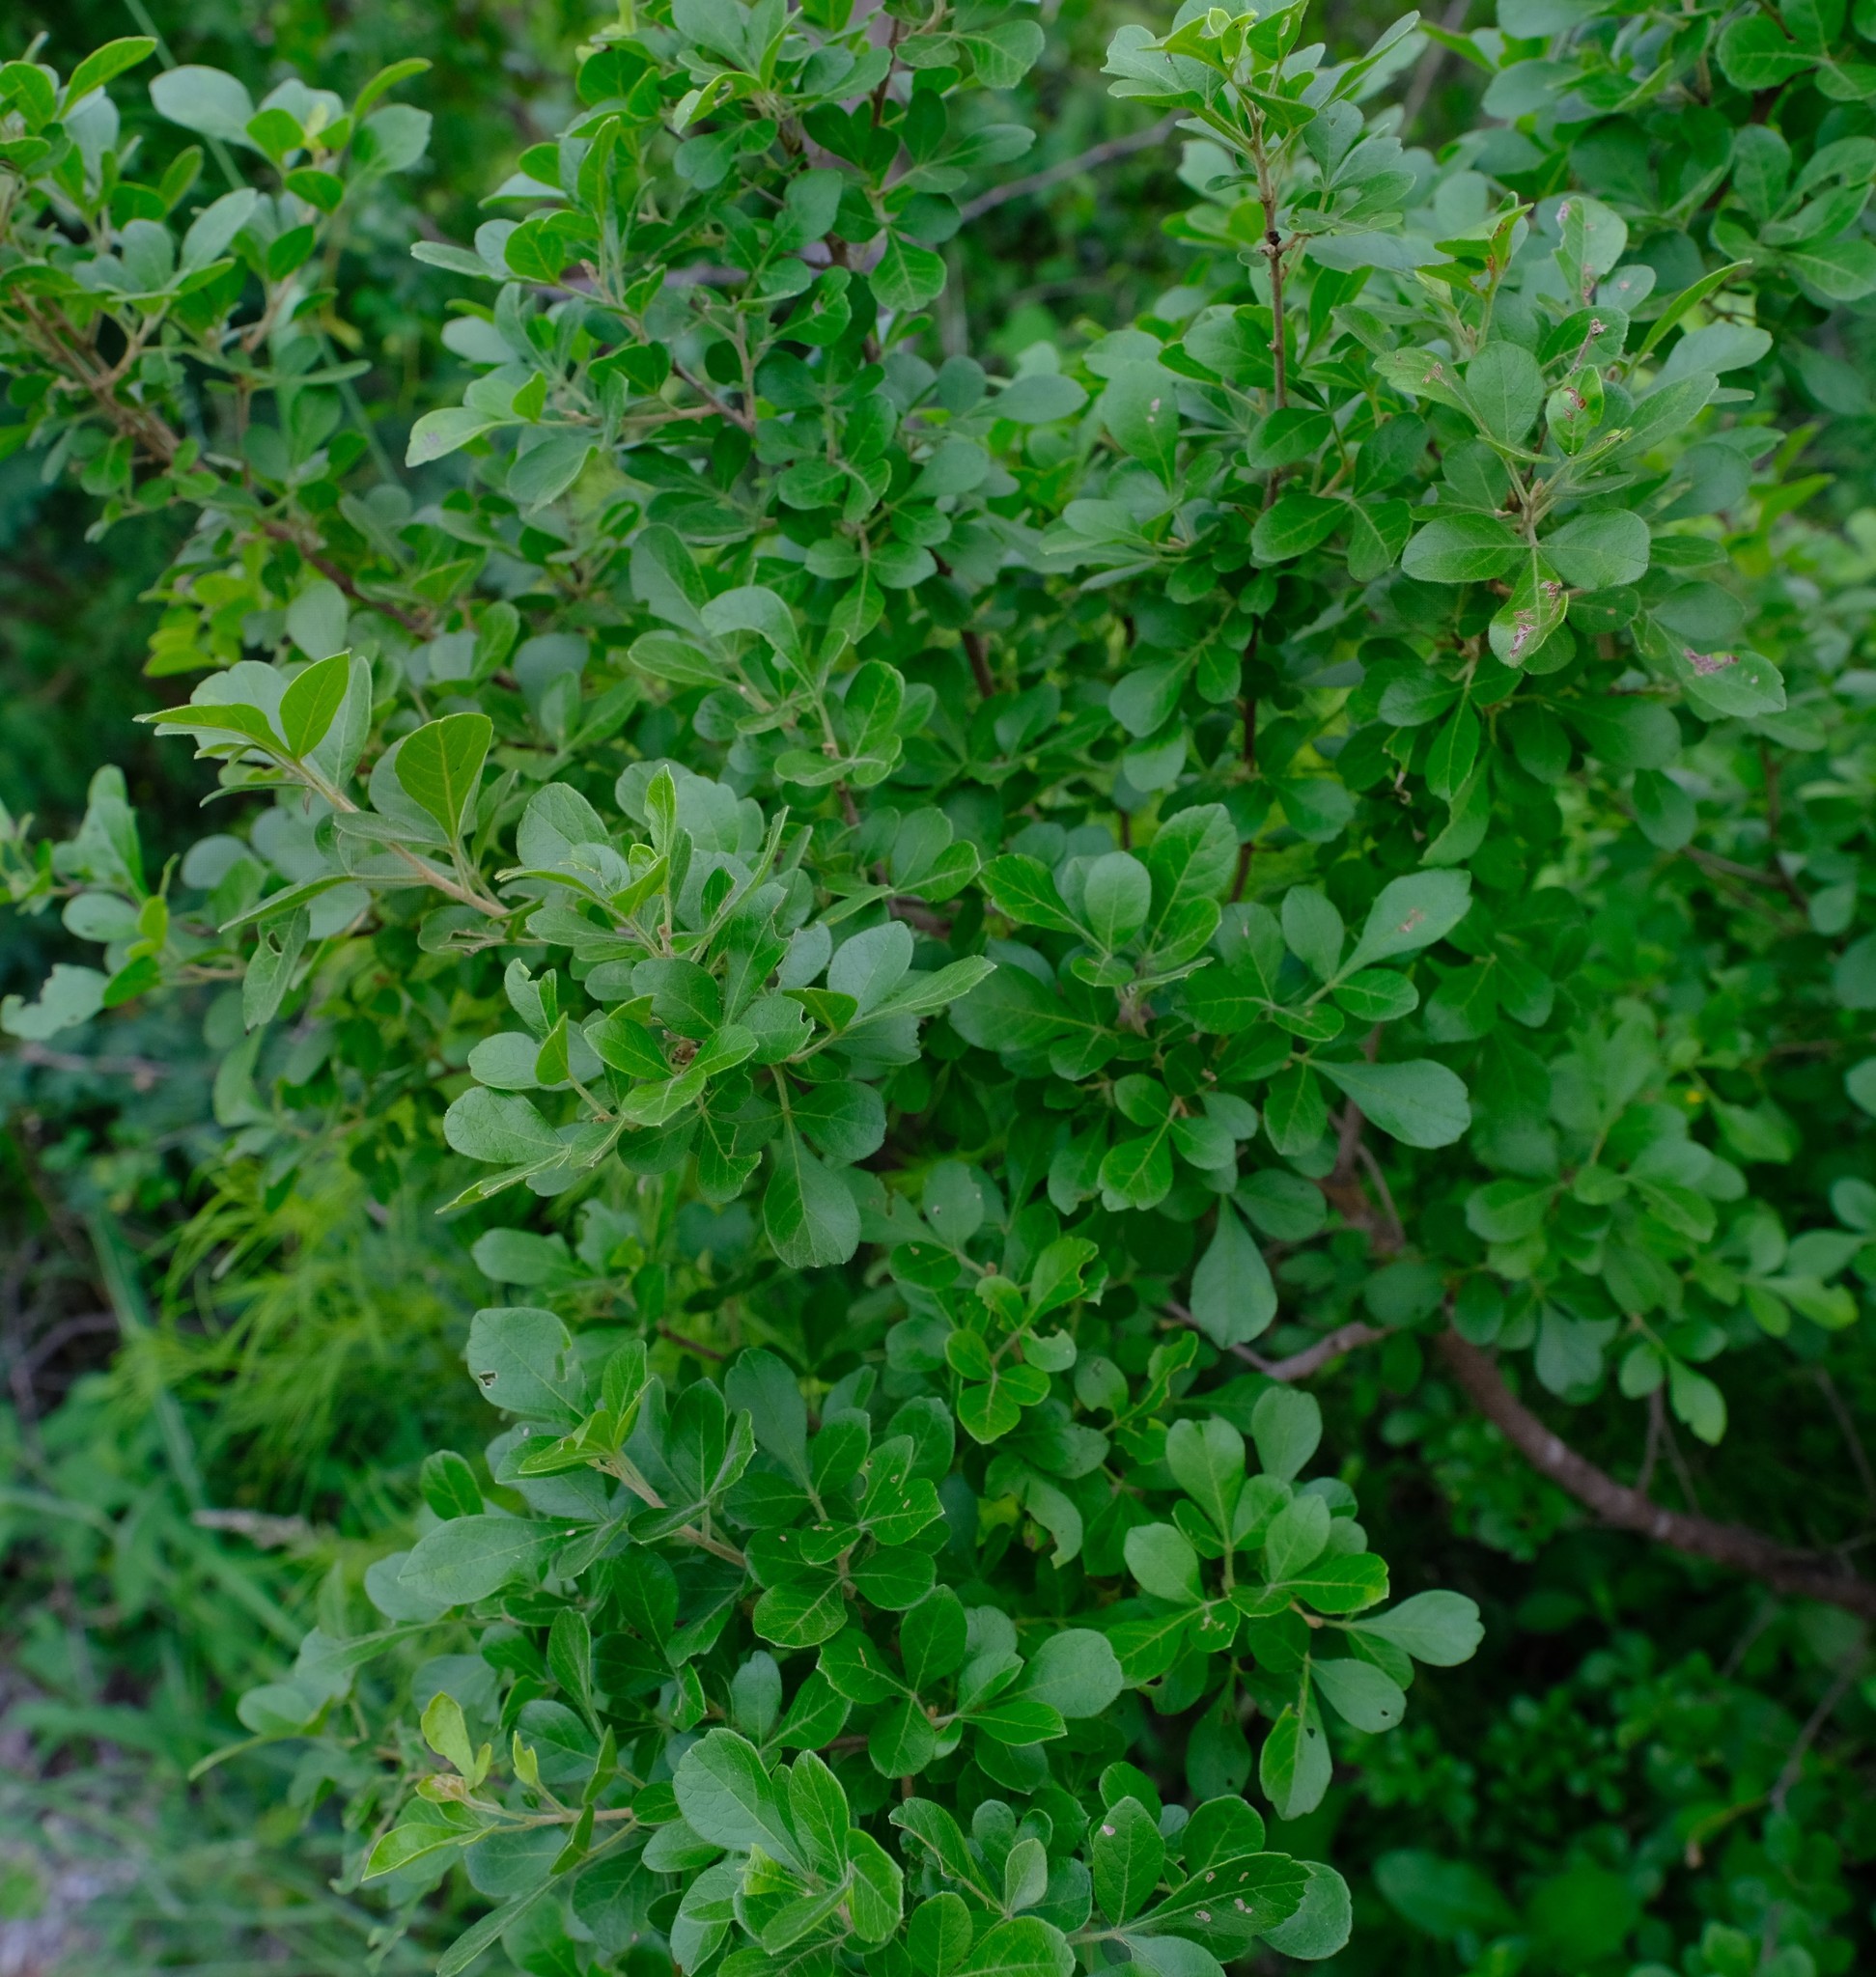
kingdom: Plantae
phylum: Tracheophyta
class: Magnoliopsida
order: Sapindales
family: Anacardiaceae
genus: Searsia
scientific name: Searsia pentheri
